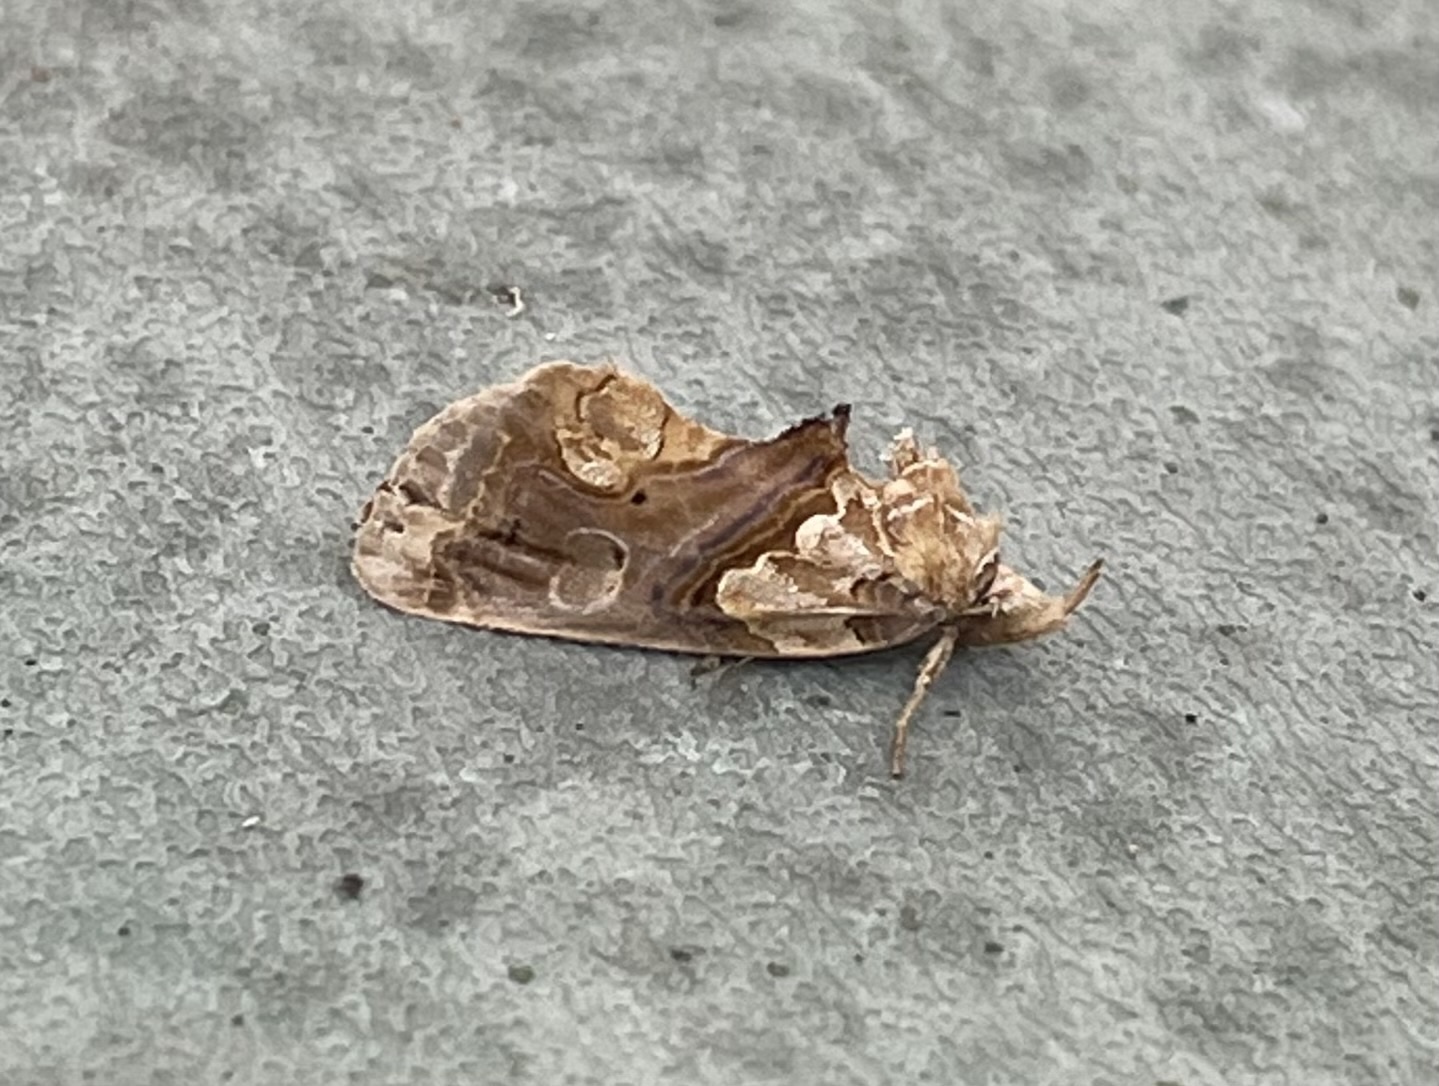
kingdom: Animalia
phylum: Arthropoda
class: Insecta
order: Lepidoptera
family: Erebidae
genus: Plusiodonta
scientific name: Plusiodonta compressipalpis
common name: Moonseed moth
